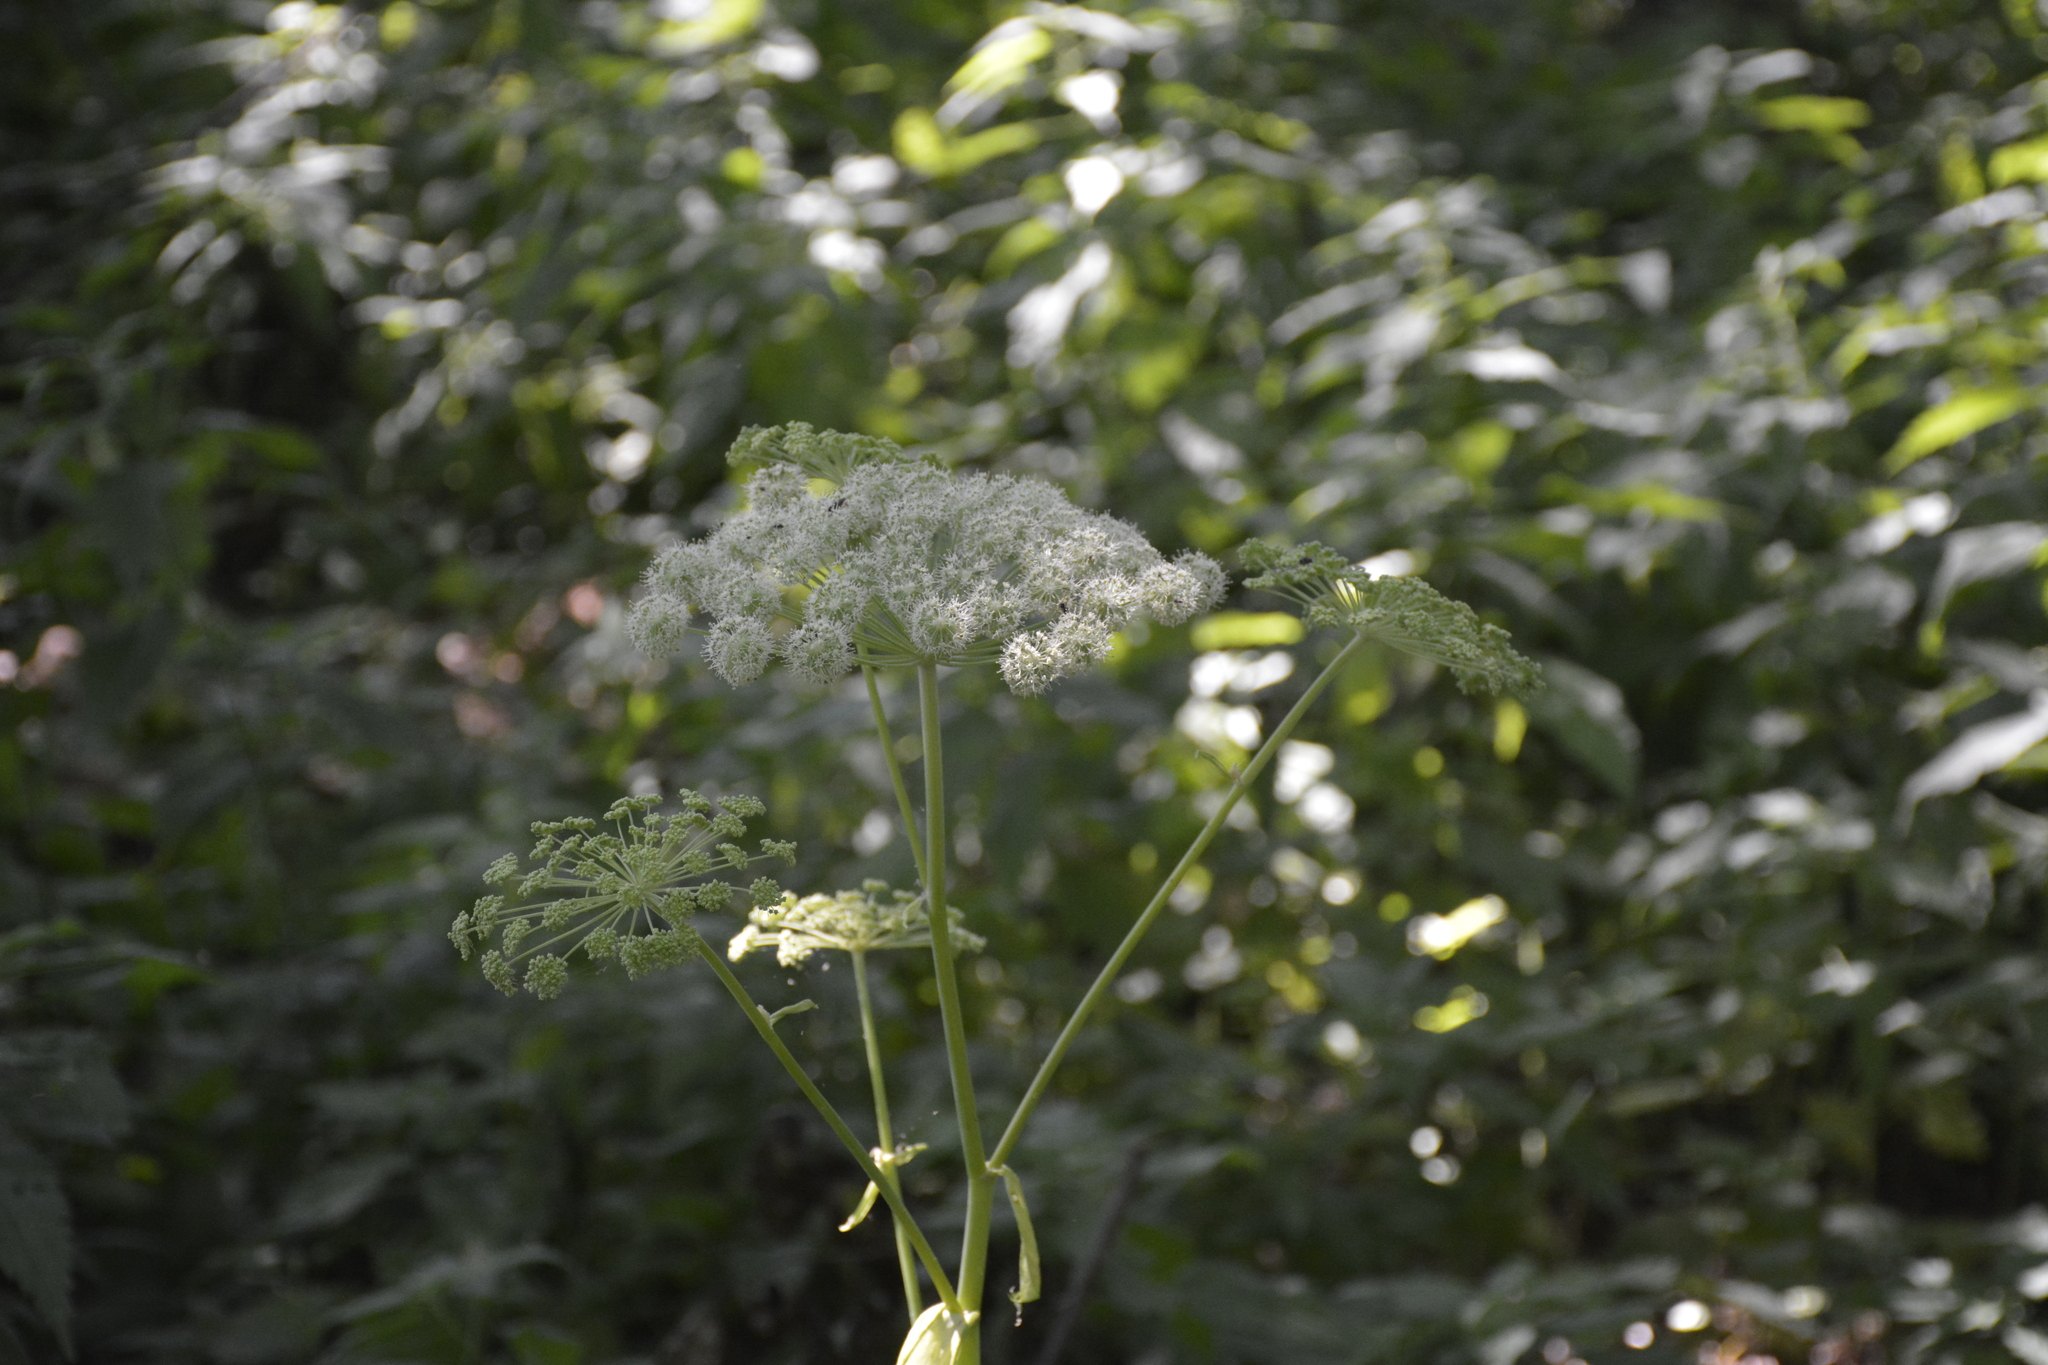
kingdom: Plantae
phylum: Tracheophyta
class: Magnoliopsida
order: Apiales
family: Apiaceae
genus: Angelica
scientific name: Angelica sylvestris
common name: Wild angelica
